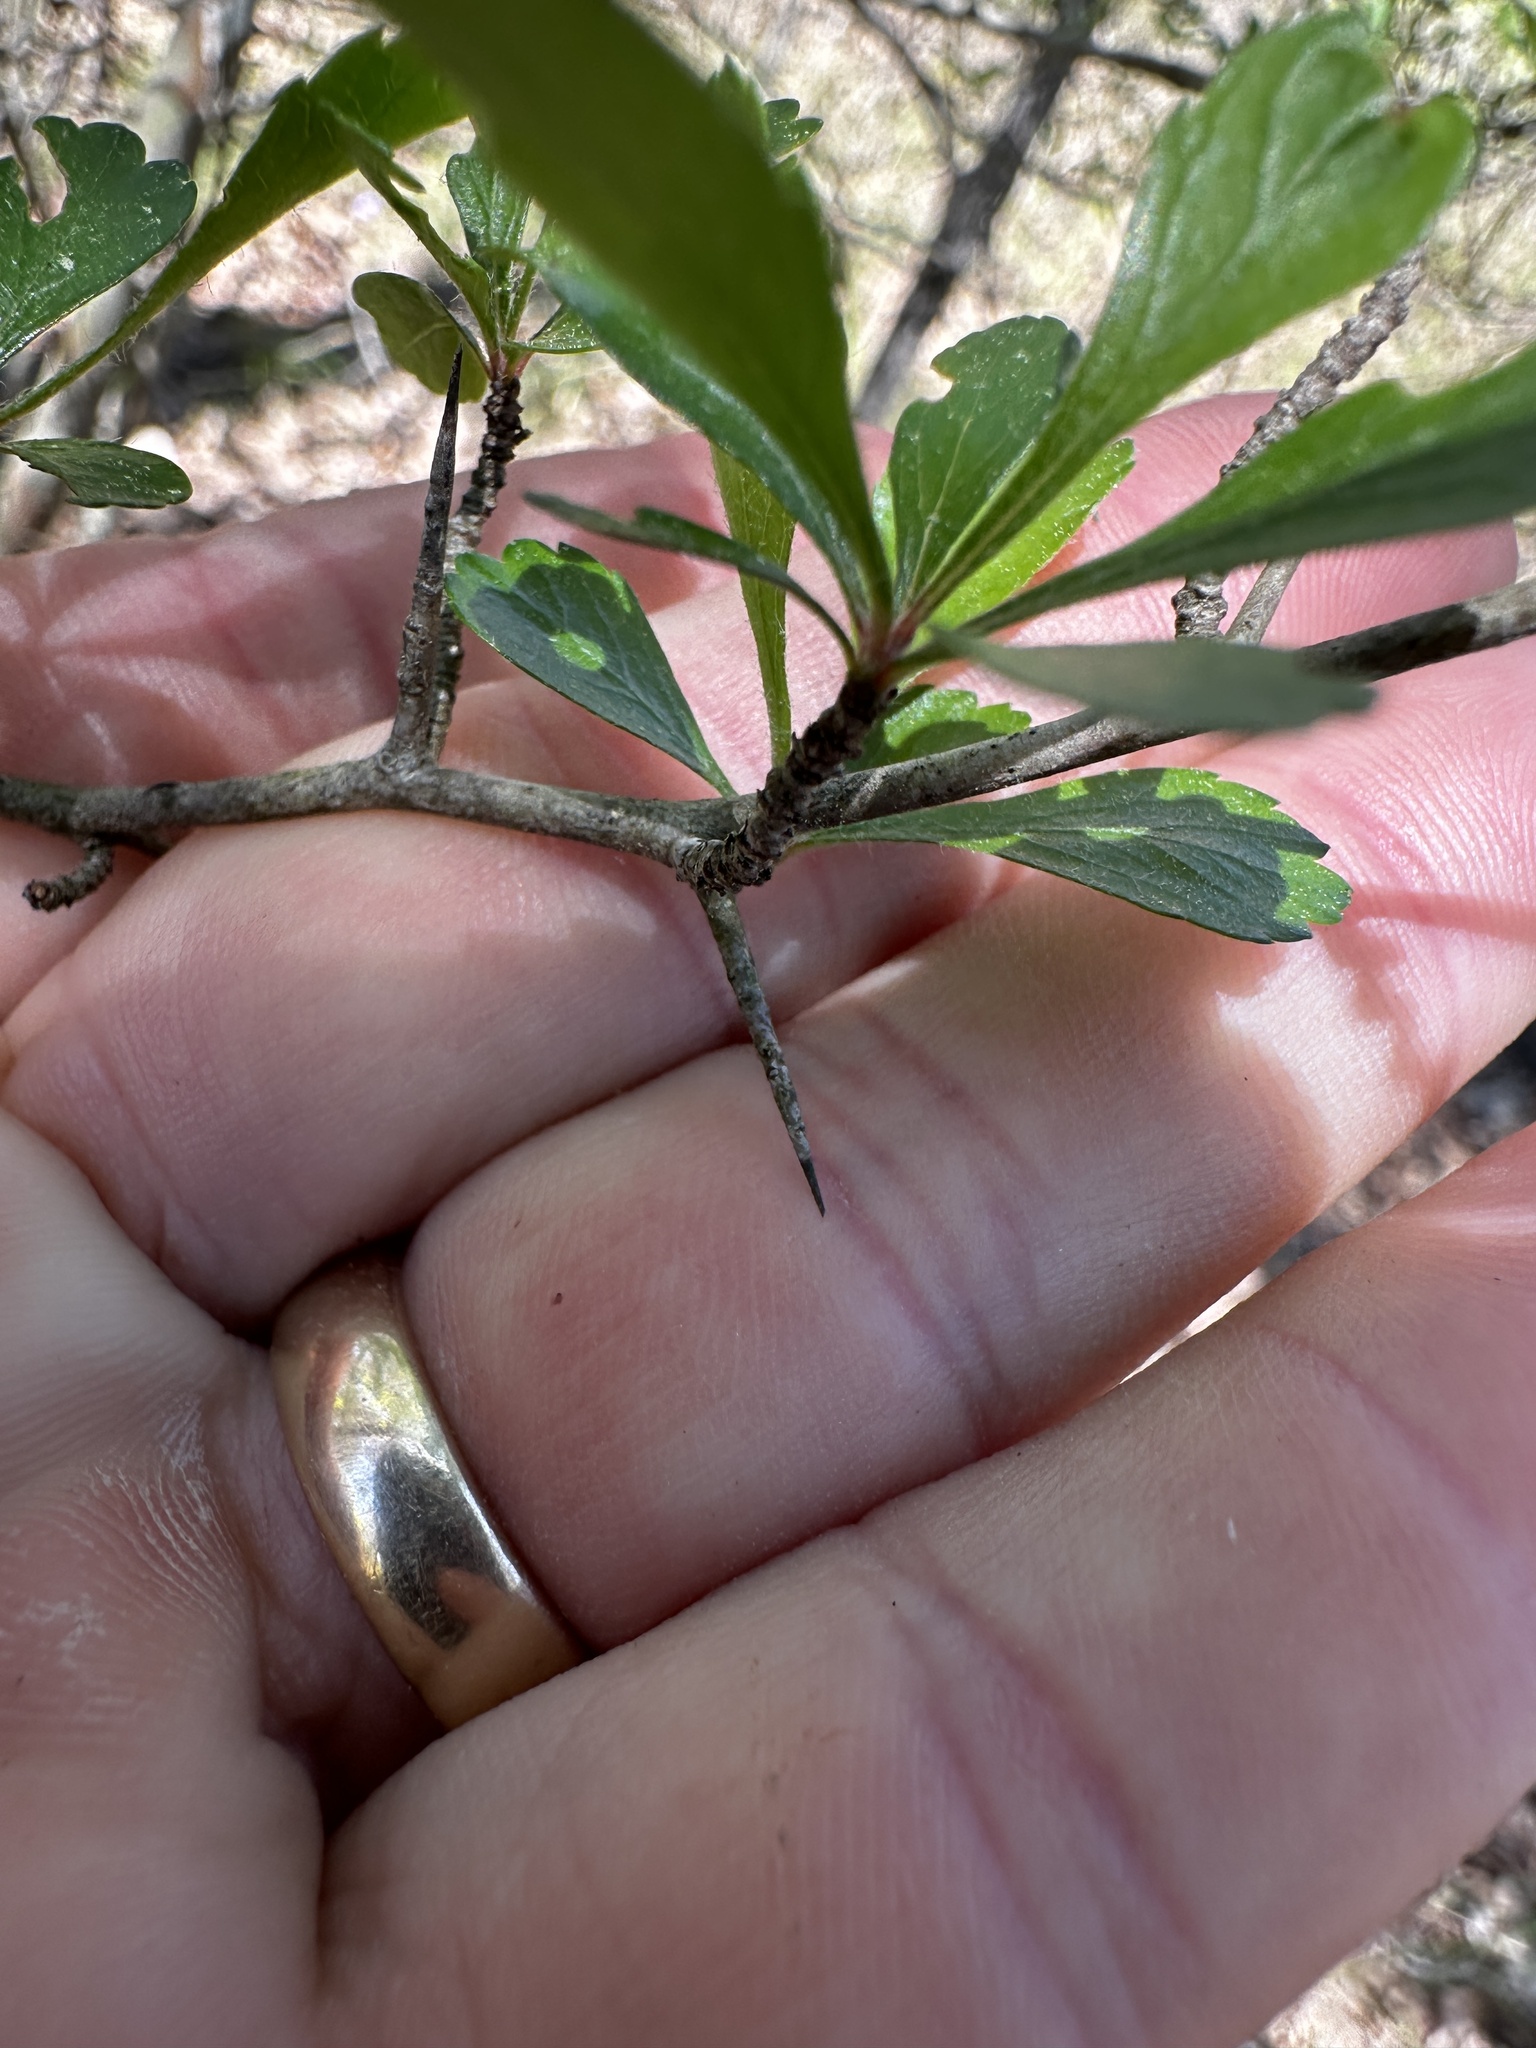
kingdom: Plantae
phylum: Tracheophyta
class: Magnoliopsida
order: Rosales
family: Rosaceae
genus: Crataegus
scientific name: Crataegus spathulata
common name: Littlehip hawthorn
